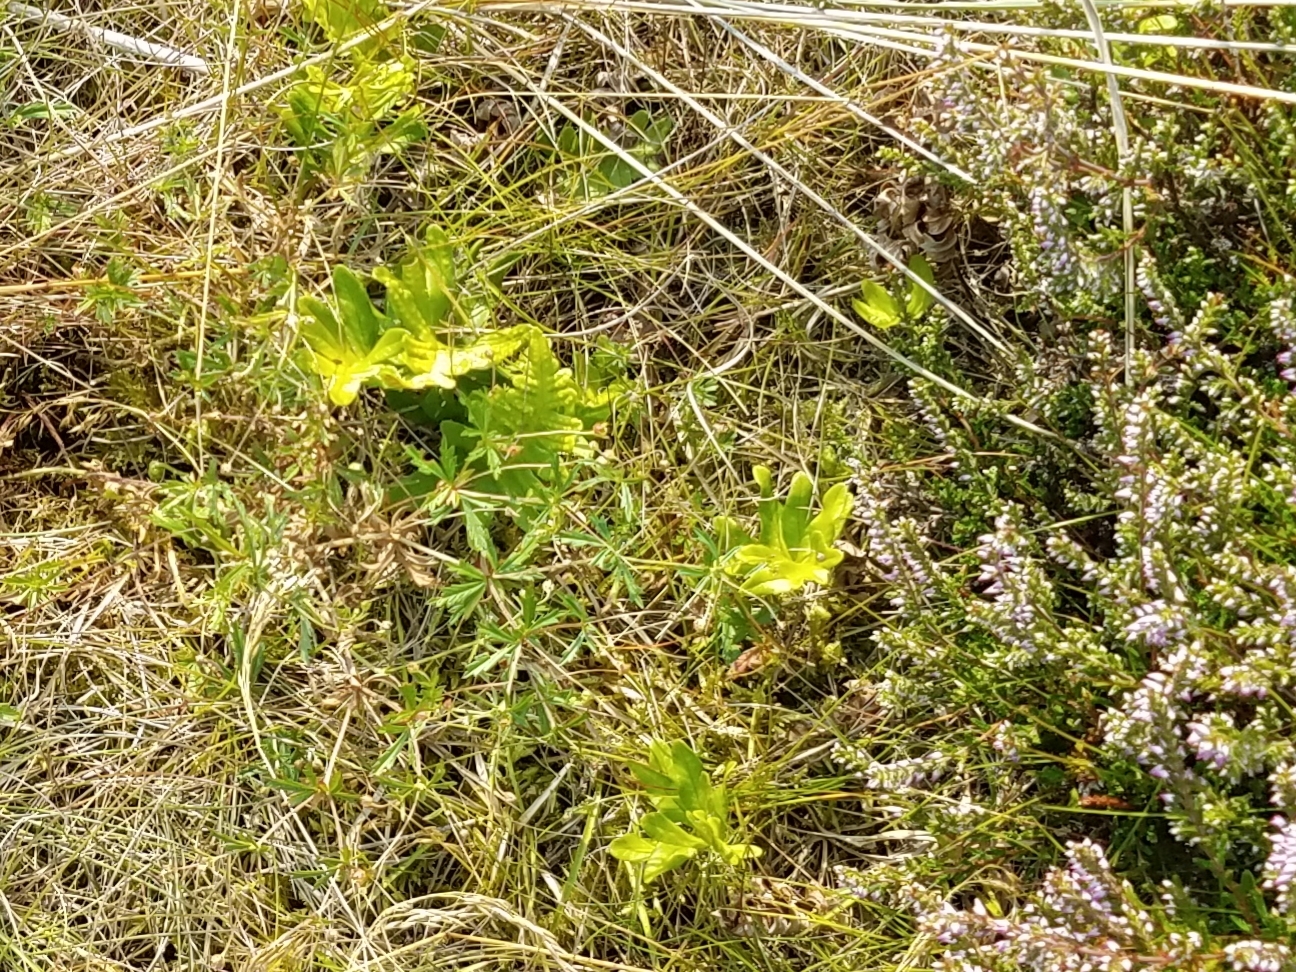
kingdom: Plantae
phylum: Tracheophyta
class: Magnoliopsida
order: Rosales
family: Rosaceae
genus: Potentilla
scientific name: Potentilla erecta
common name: Tormentil
